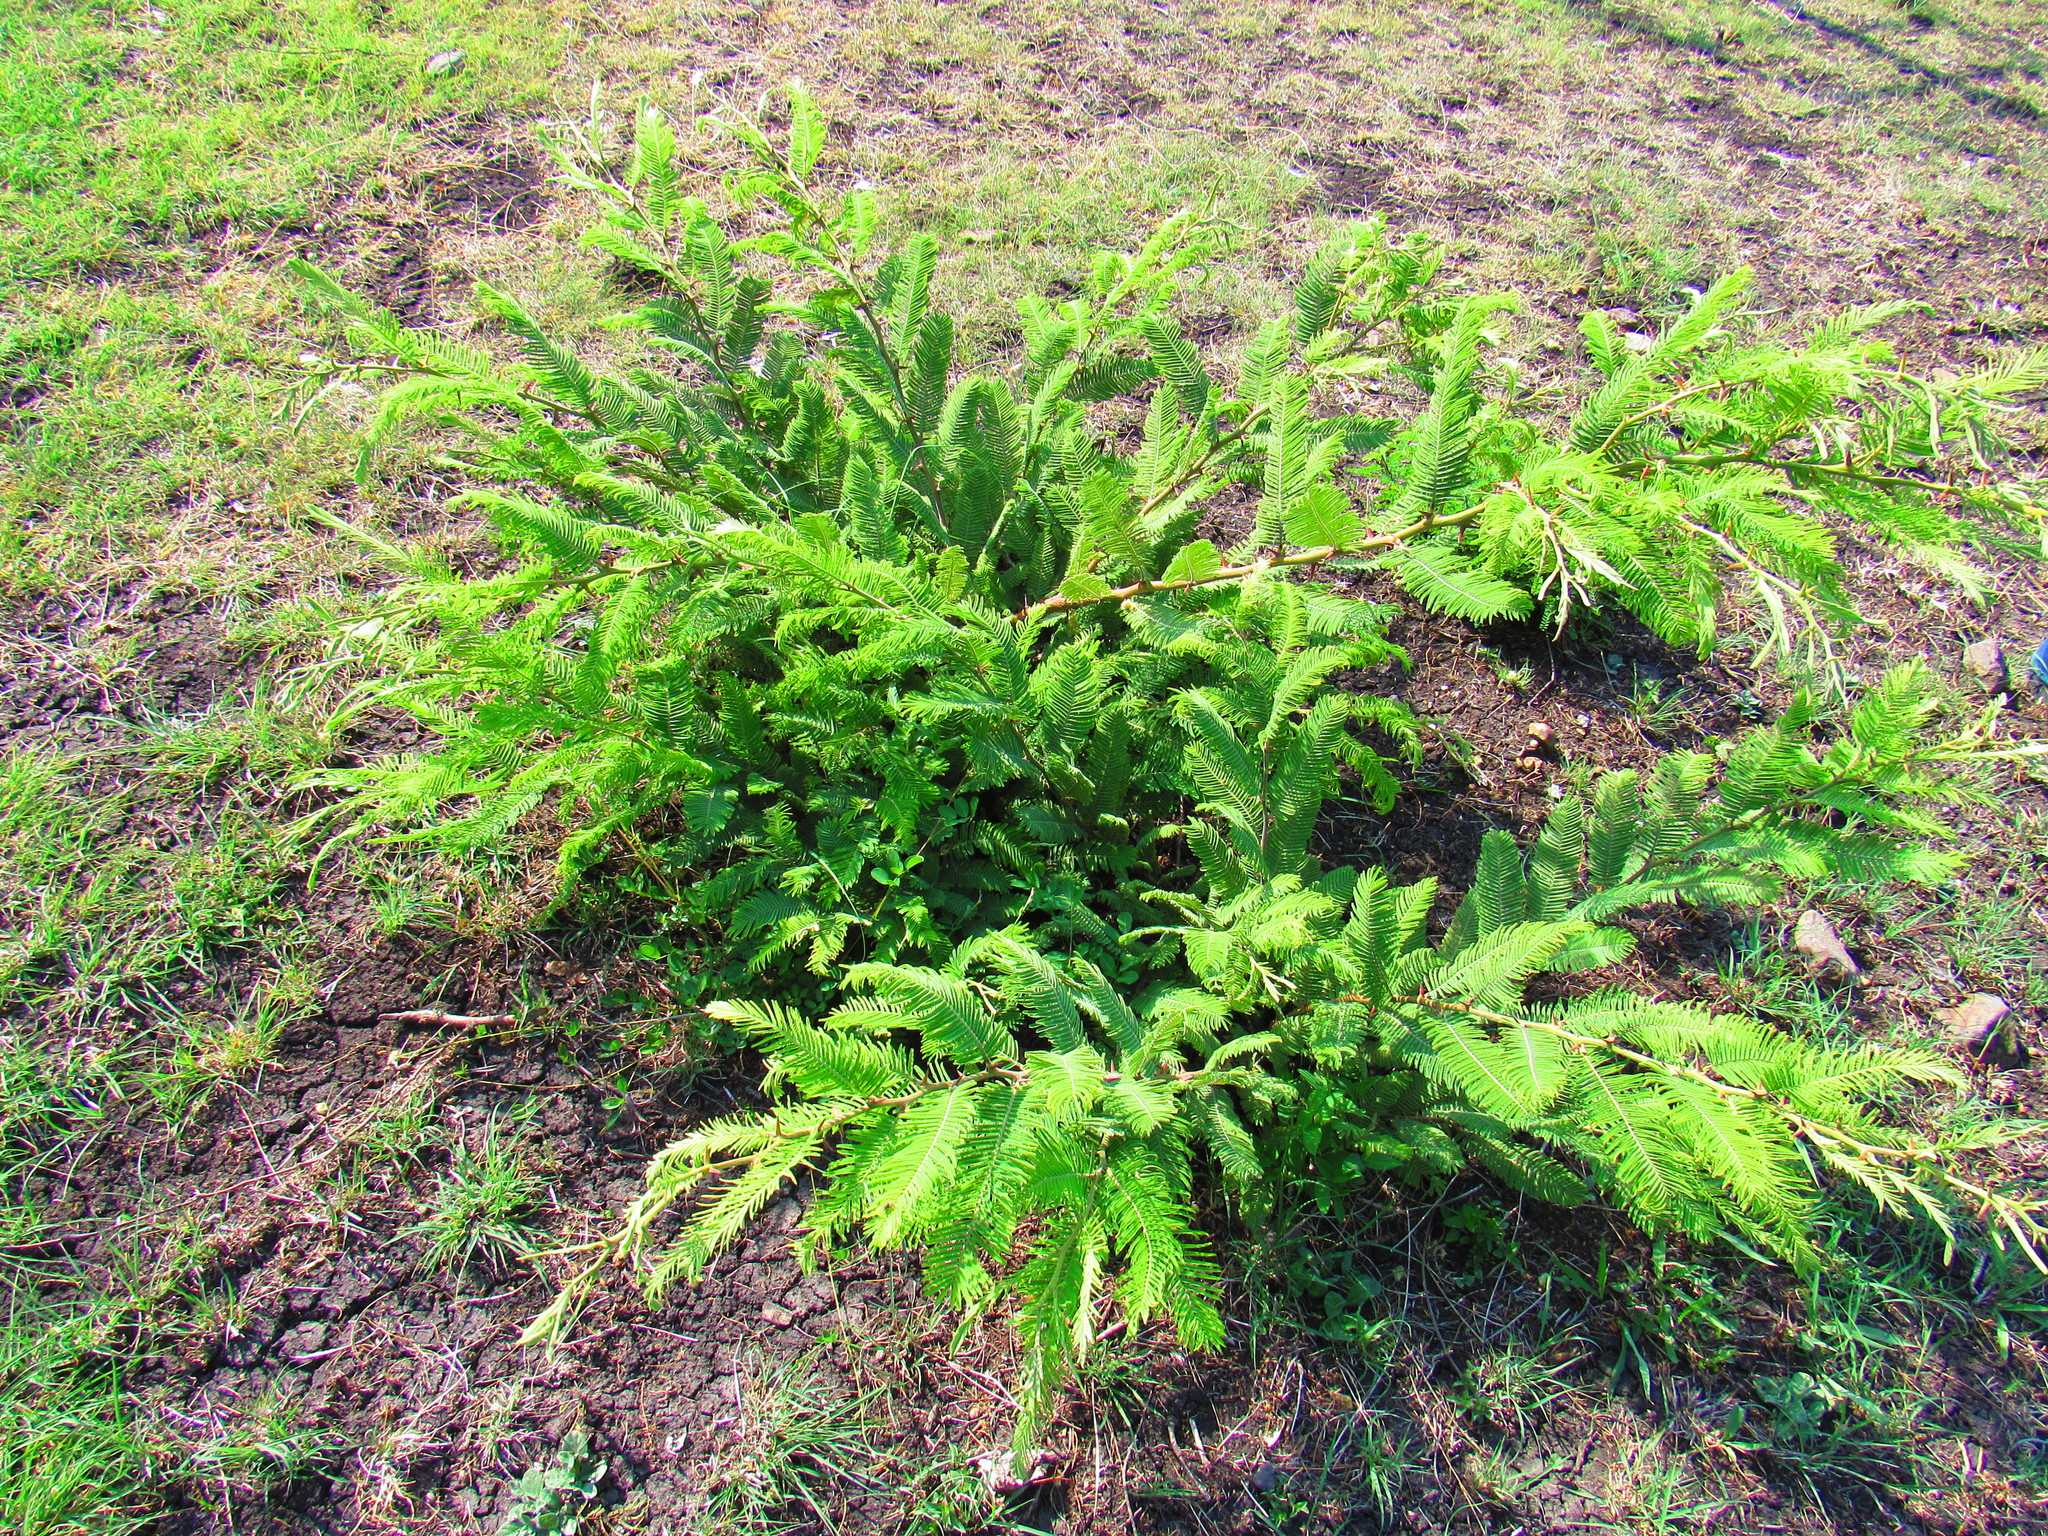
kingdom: Plantae
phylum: Tracheophyta
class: Magnoliopsida
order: Fabales
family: Fabaceae
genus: Vachellia
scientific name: Vachellia pennatula
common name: Fern-leaf acacia
